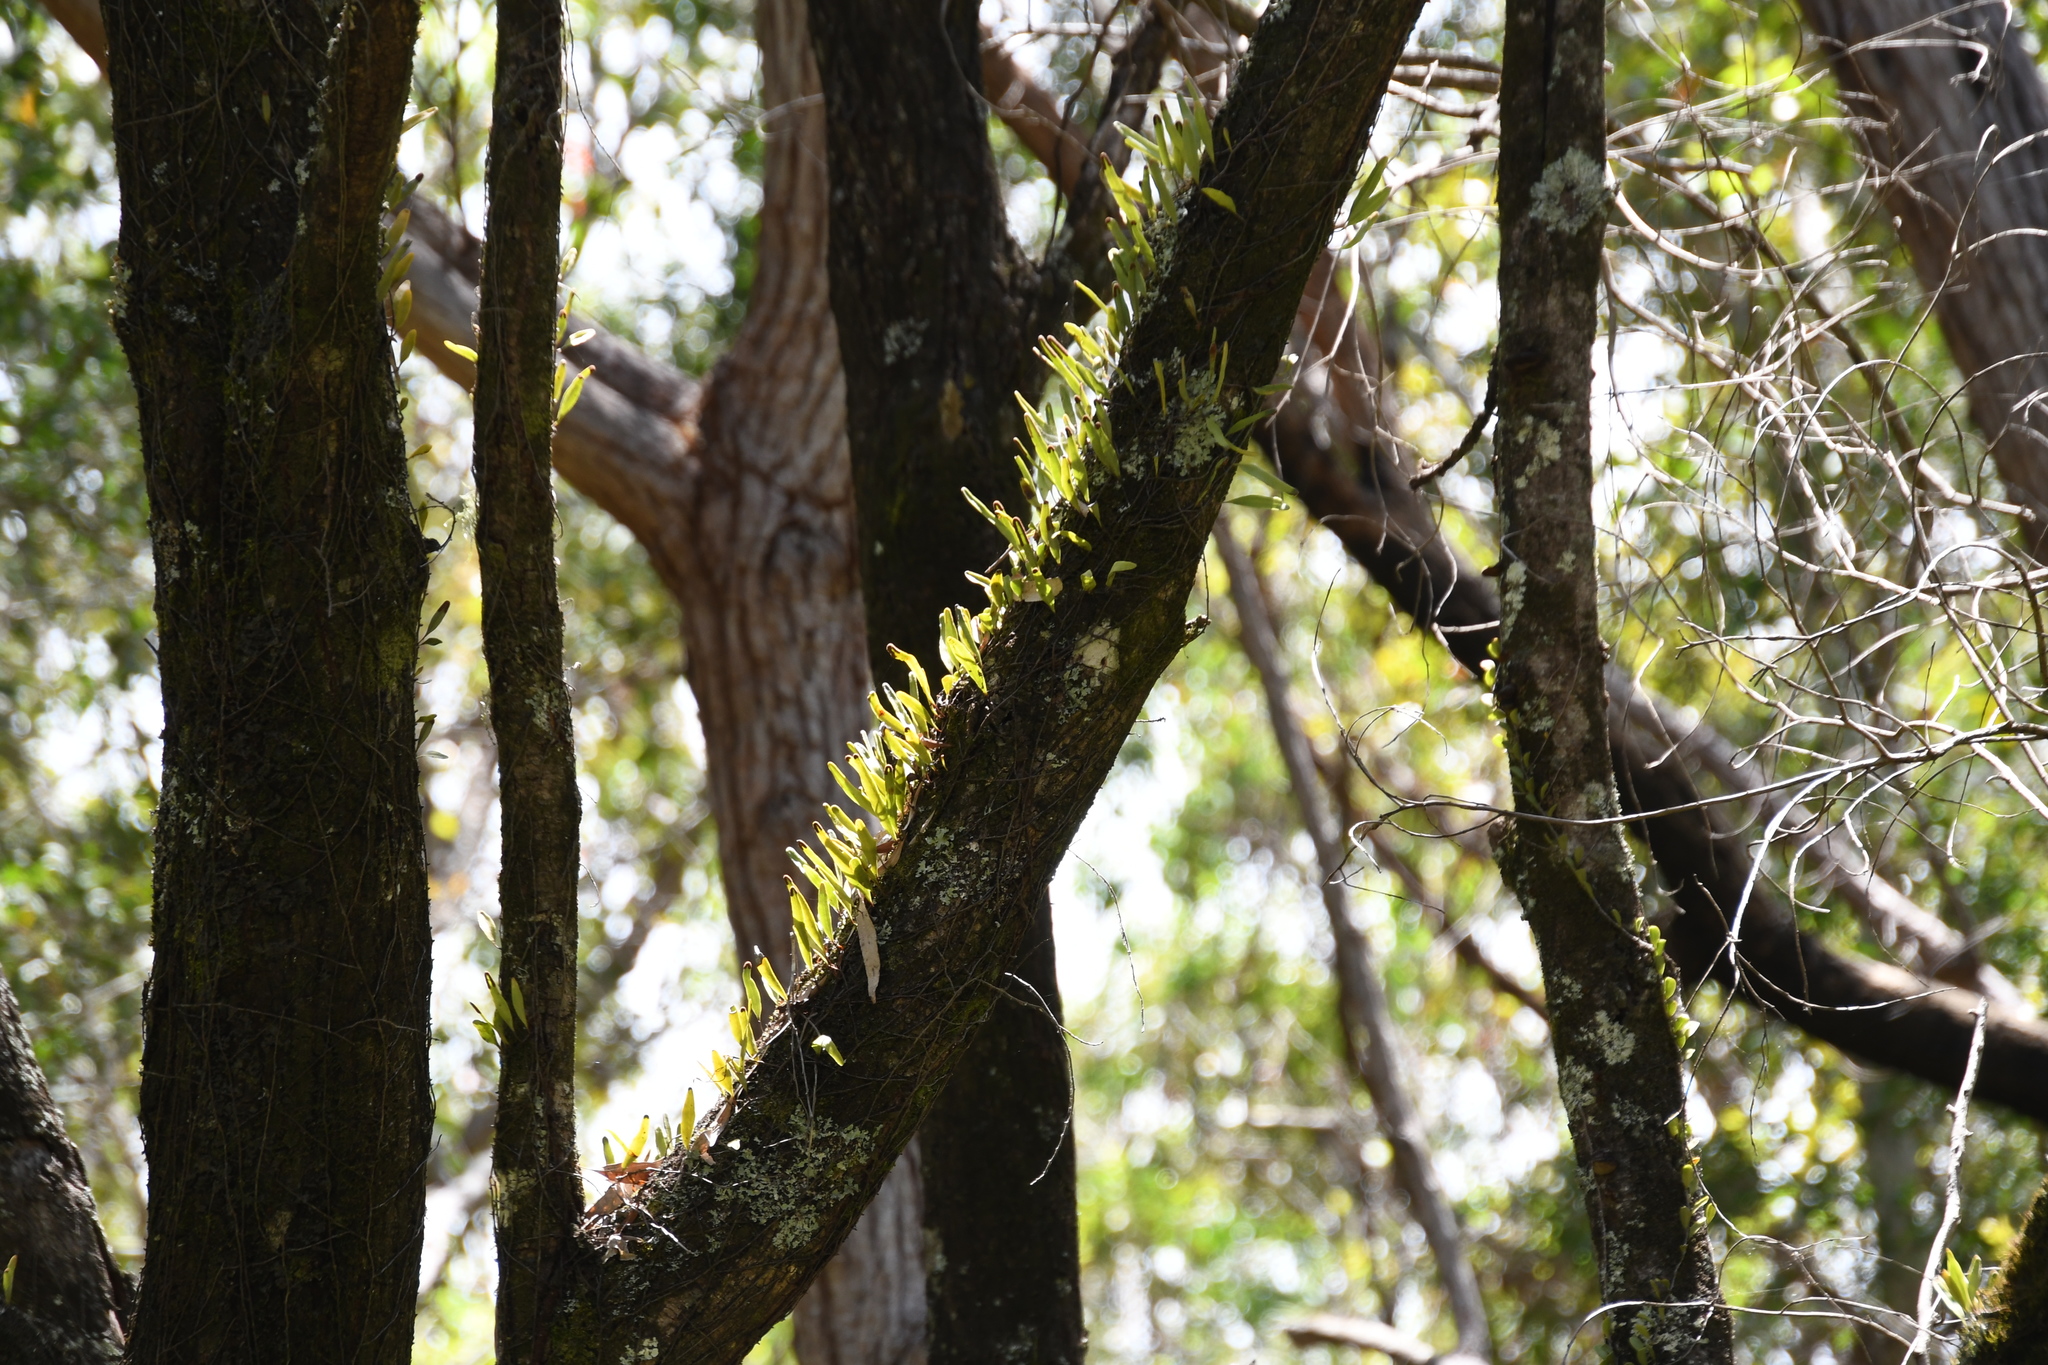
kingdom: Plantae
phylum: Tracheophyta
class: Polypodiopsida
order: Polypodiales
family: Polypodiaceae
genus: Pyrrosia
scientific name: Pyrrosia confluens
